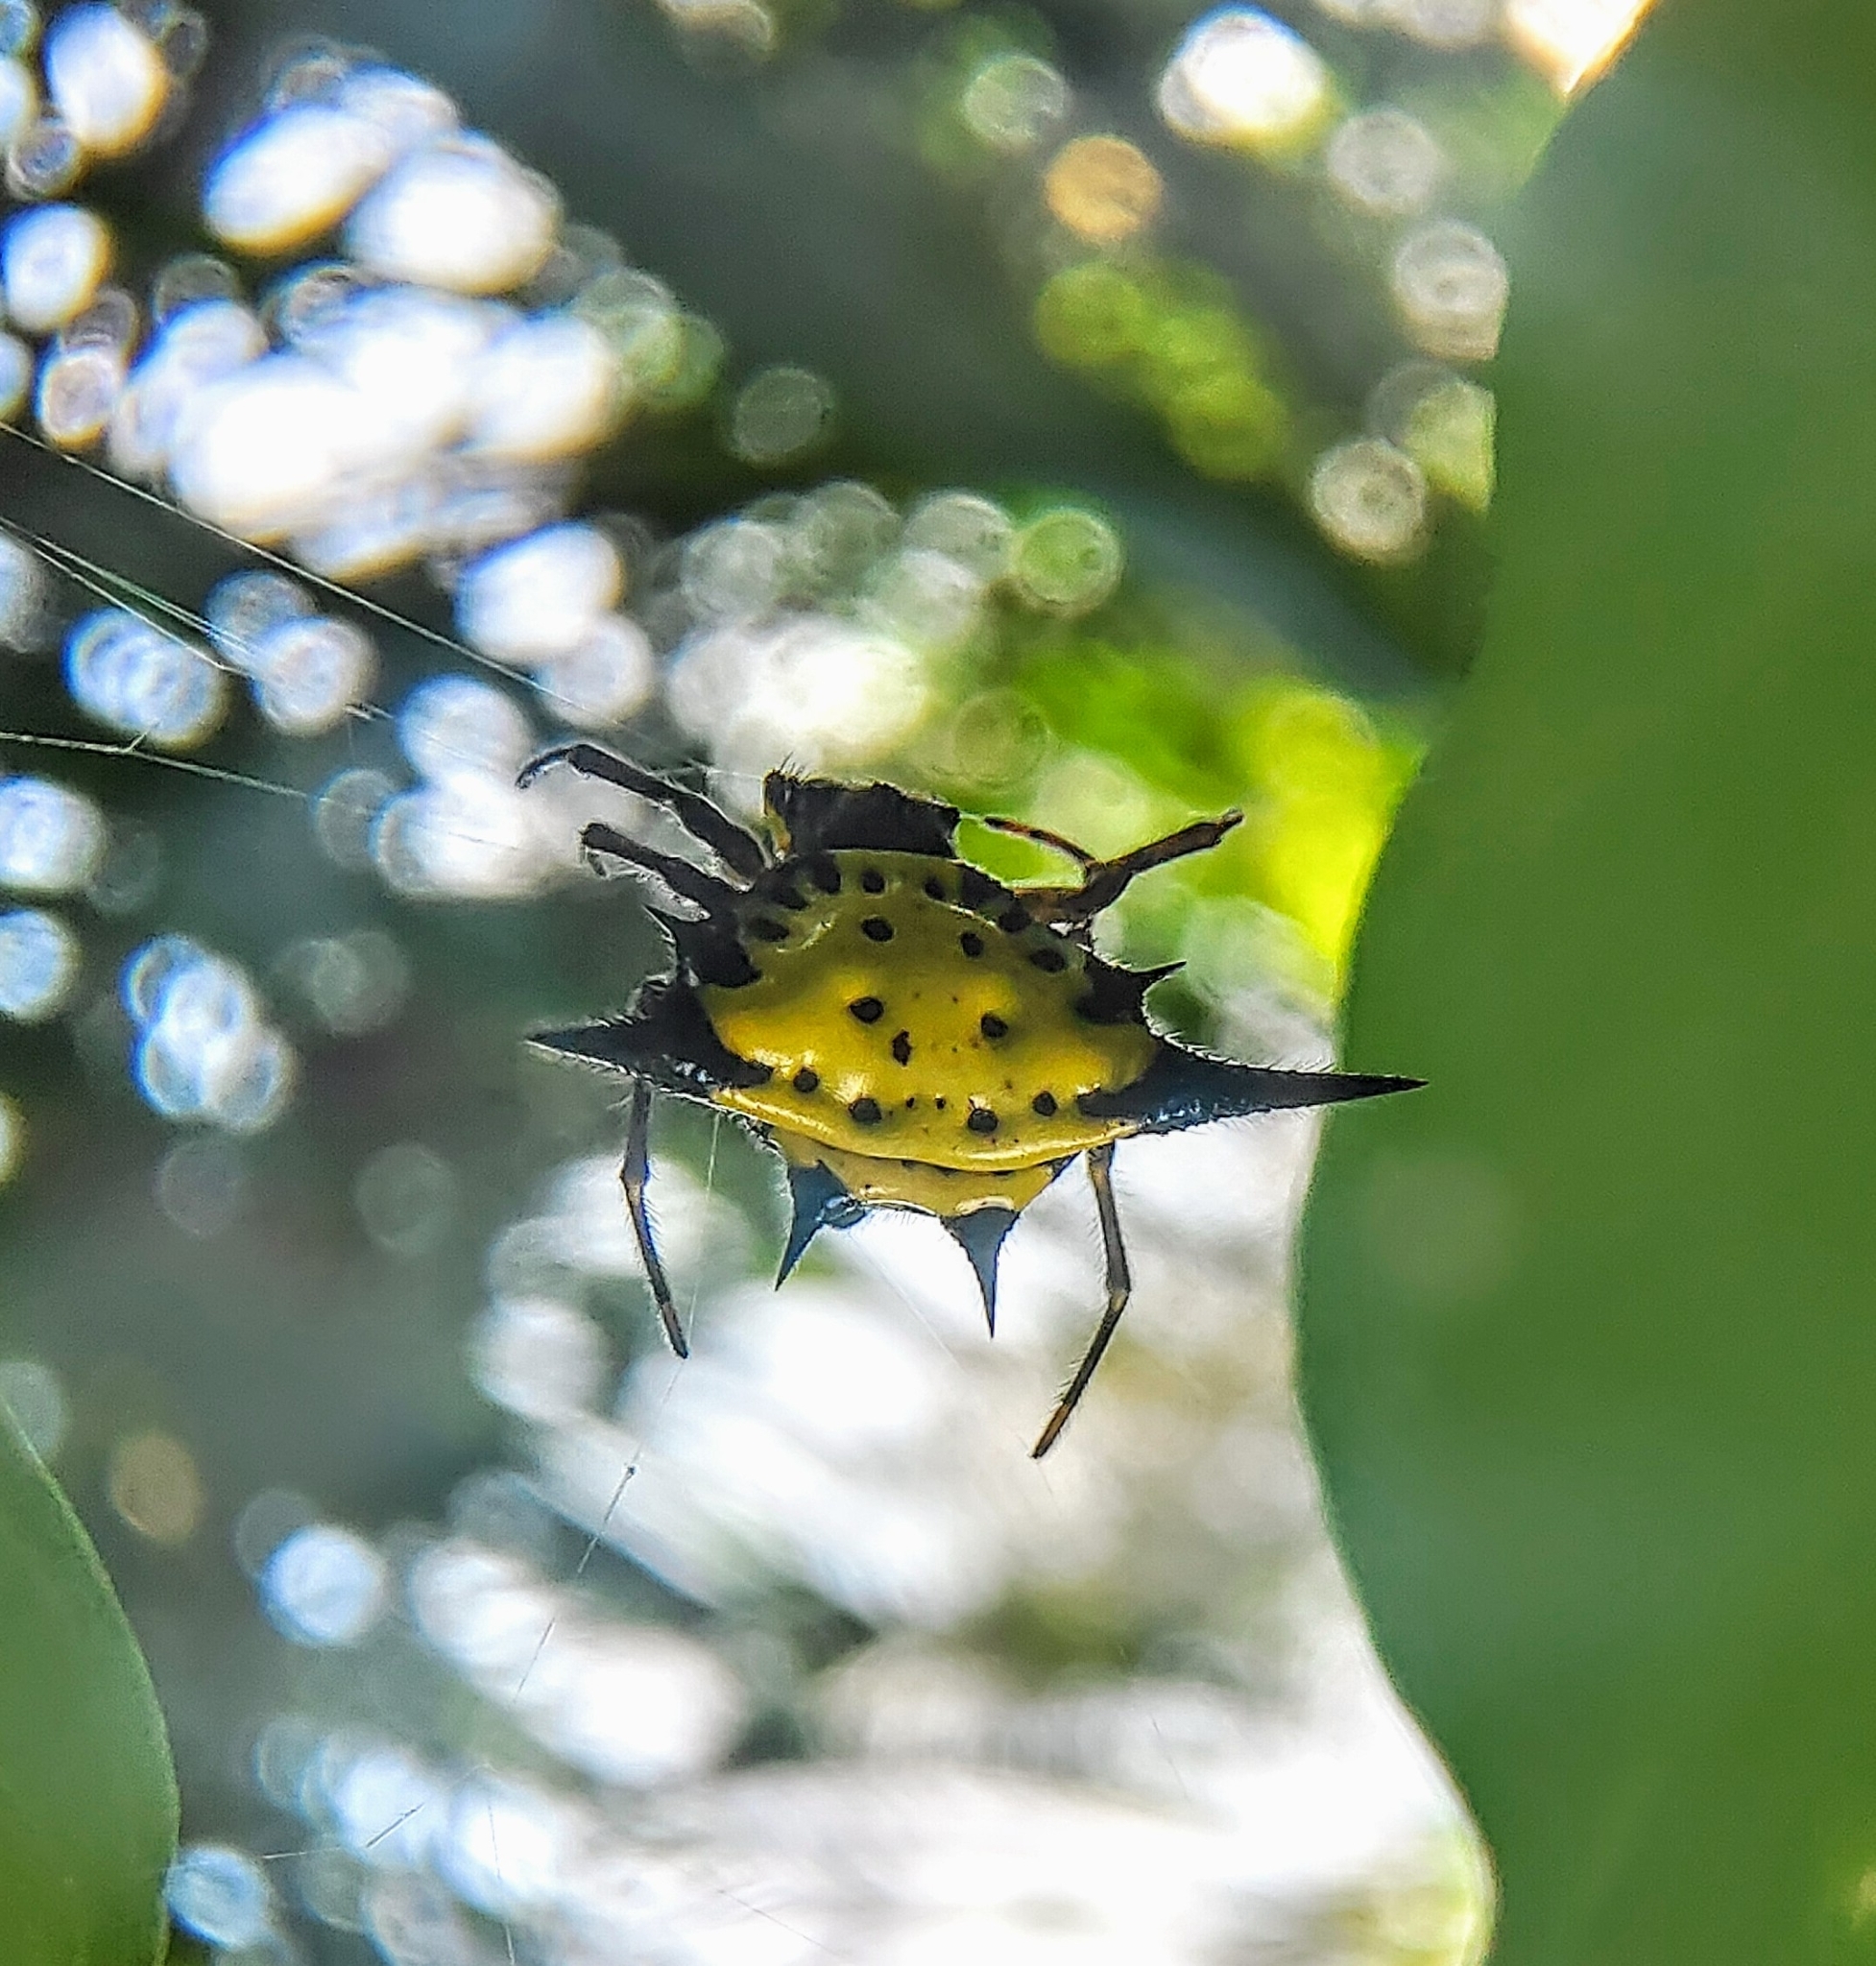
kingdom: Animalia
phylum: Arthropoda
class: Arachnida
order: Araneae
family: Araneidae
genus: Macracantha
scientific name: Macracantha hasselti
